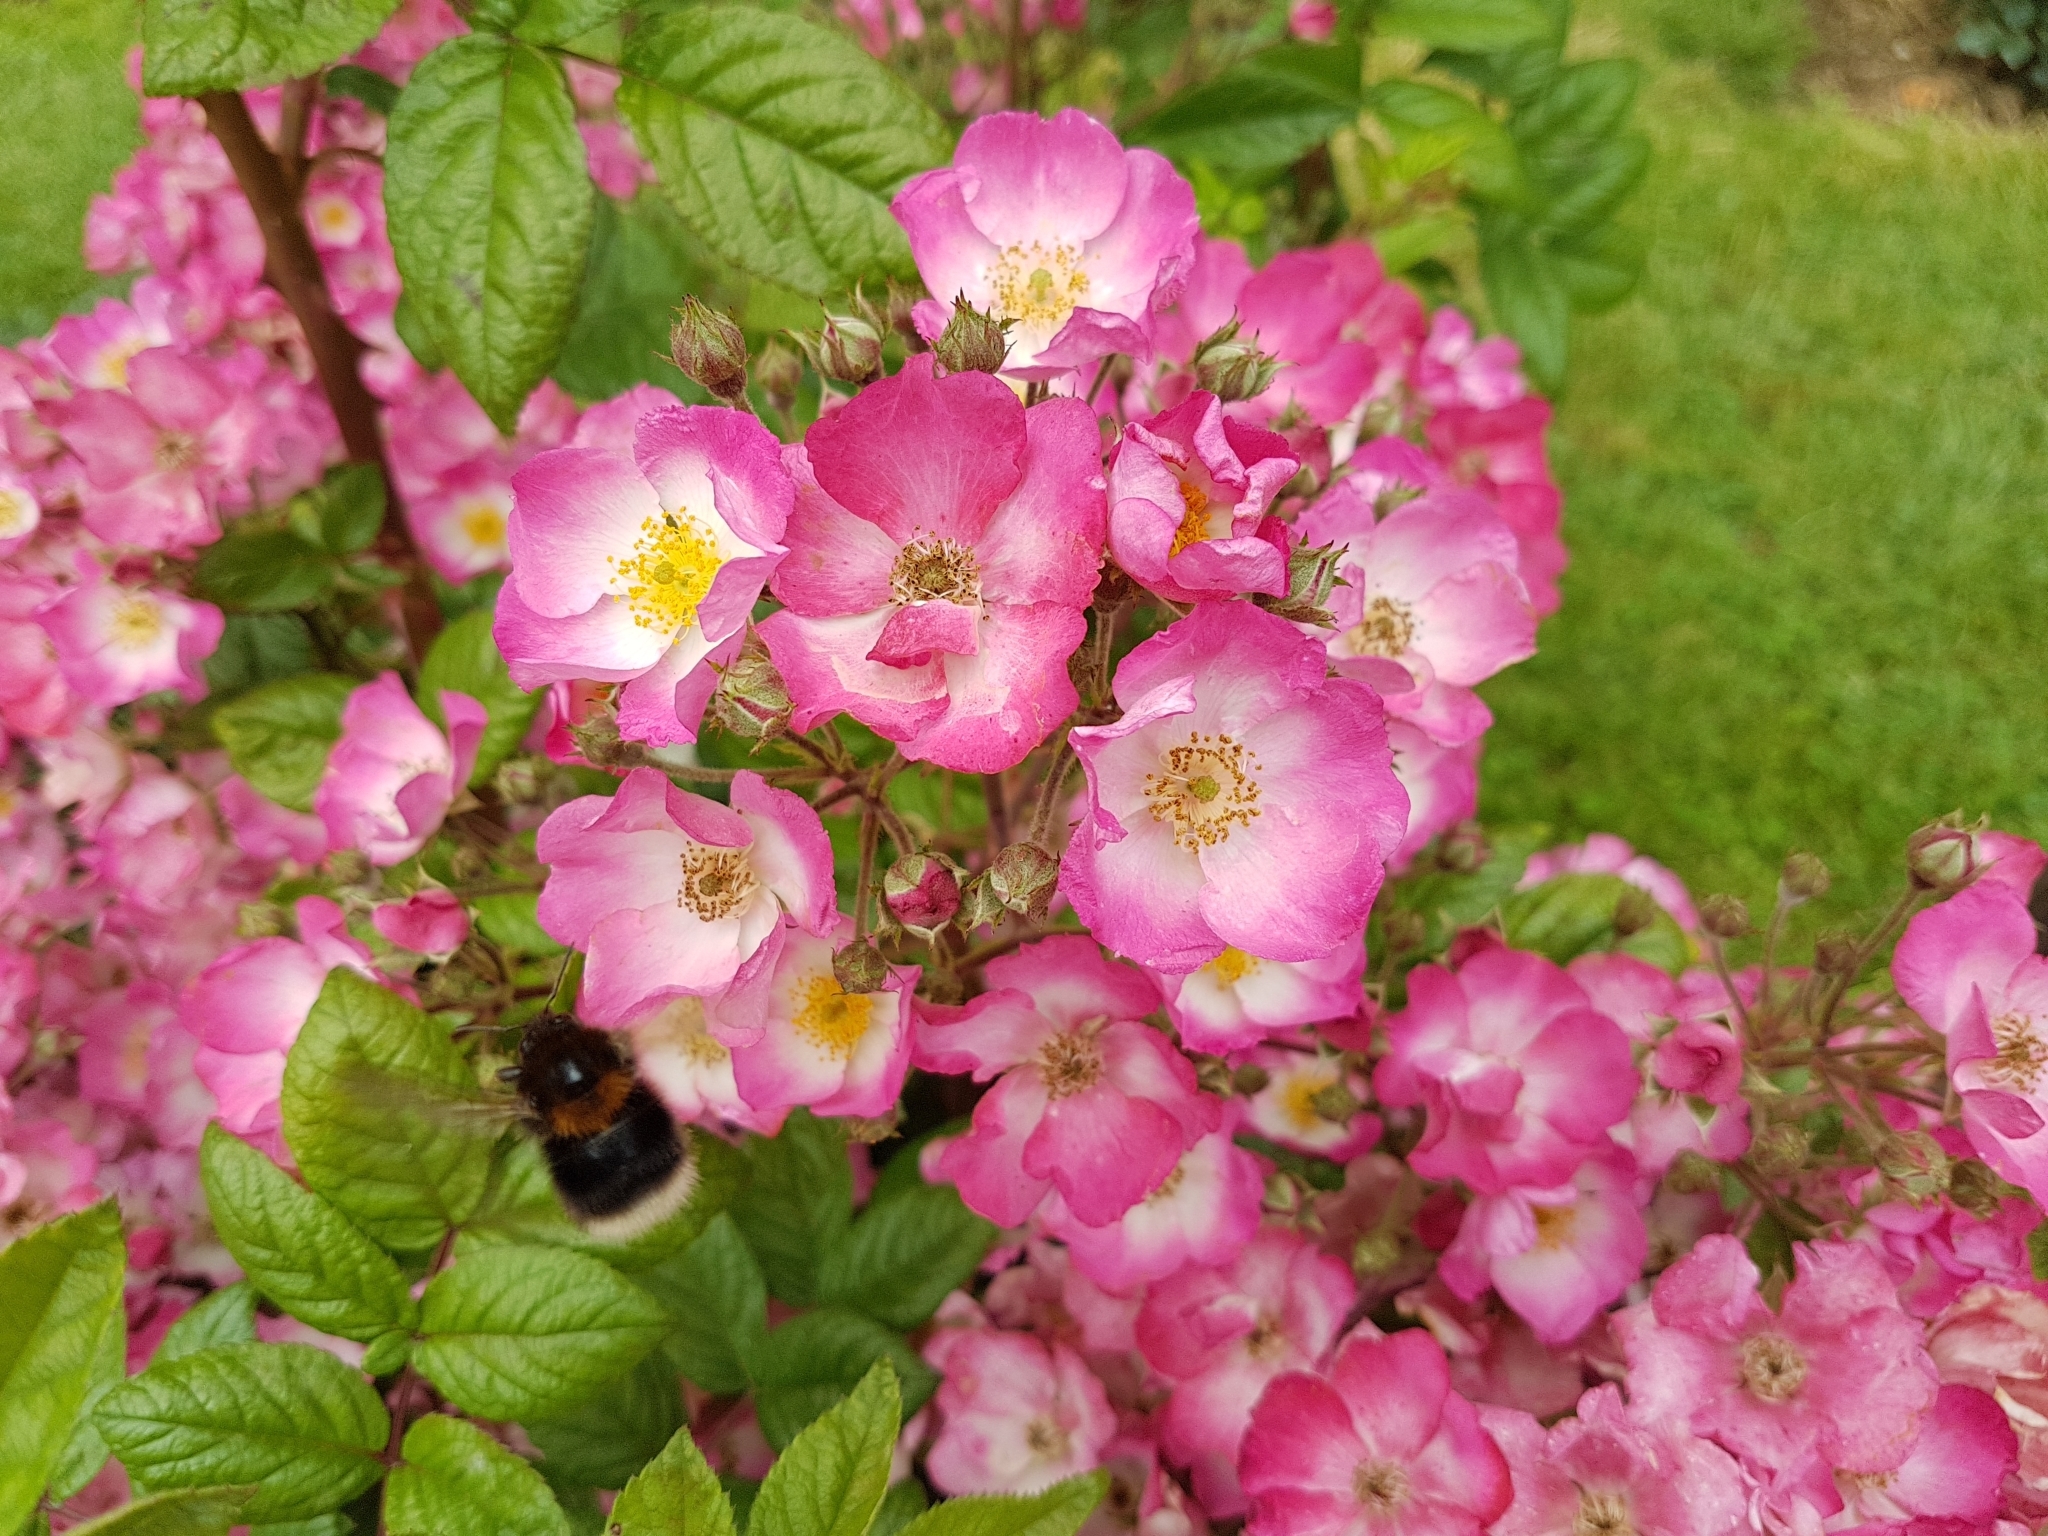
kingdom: Animalia
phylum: Arthropoda
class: Insecta
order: Hymenoptera
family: Apidae
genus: Bombus
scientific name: Bombus hypnorum
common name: New garden bumblebee
